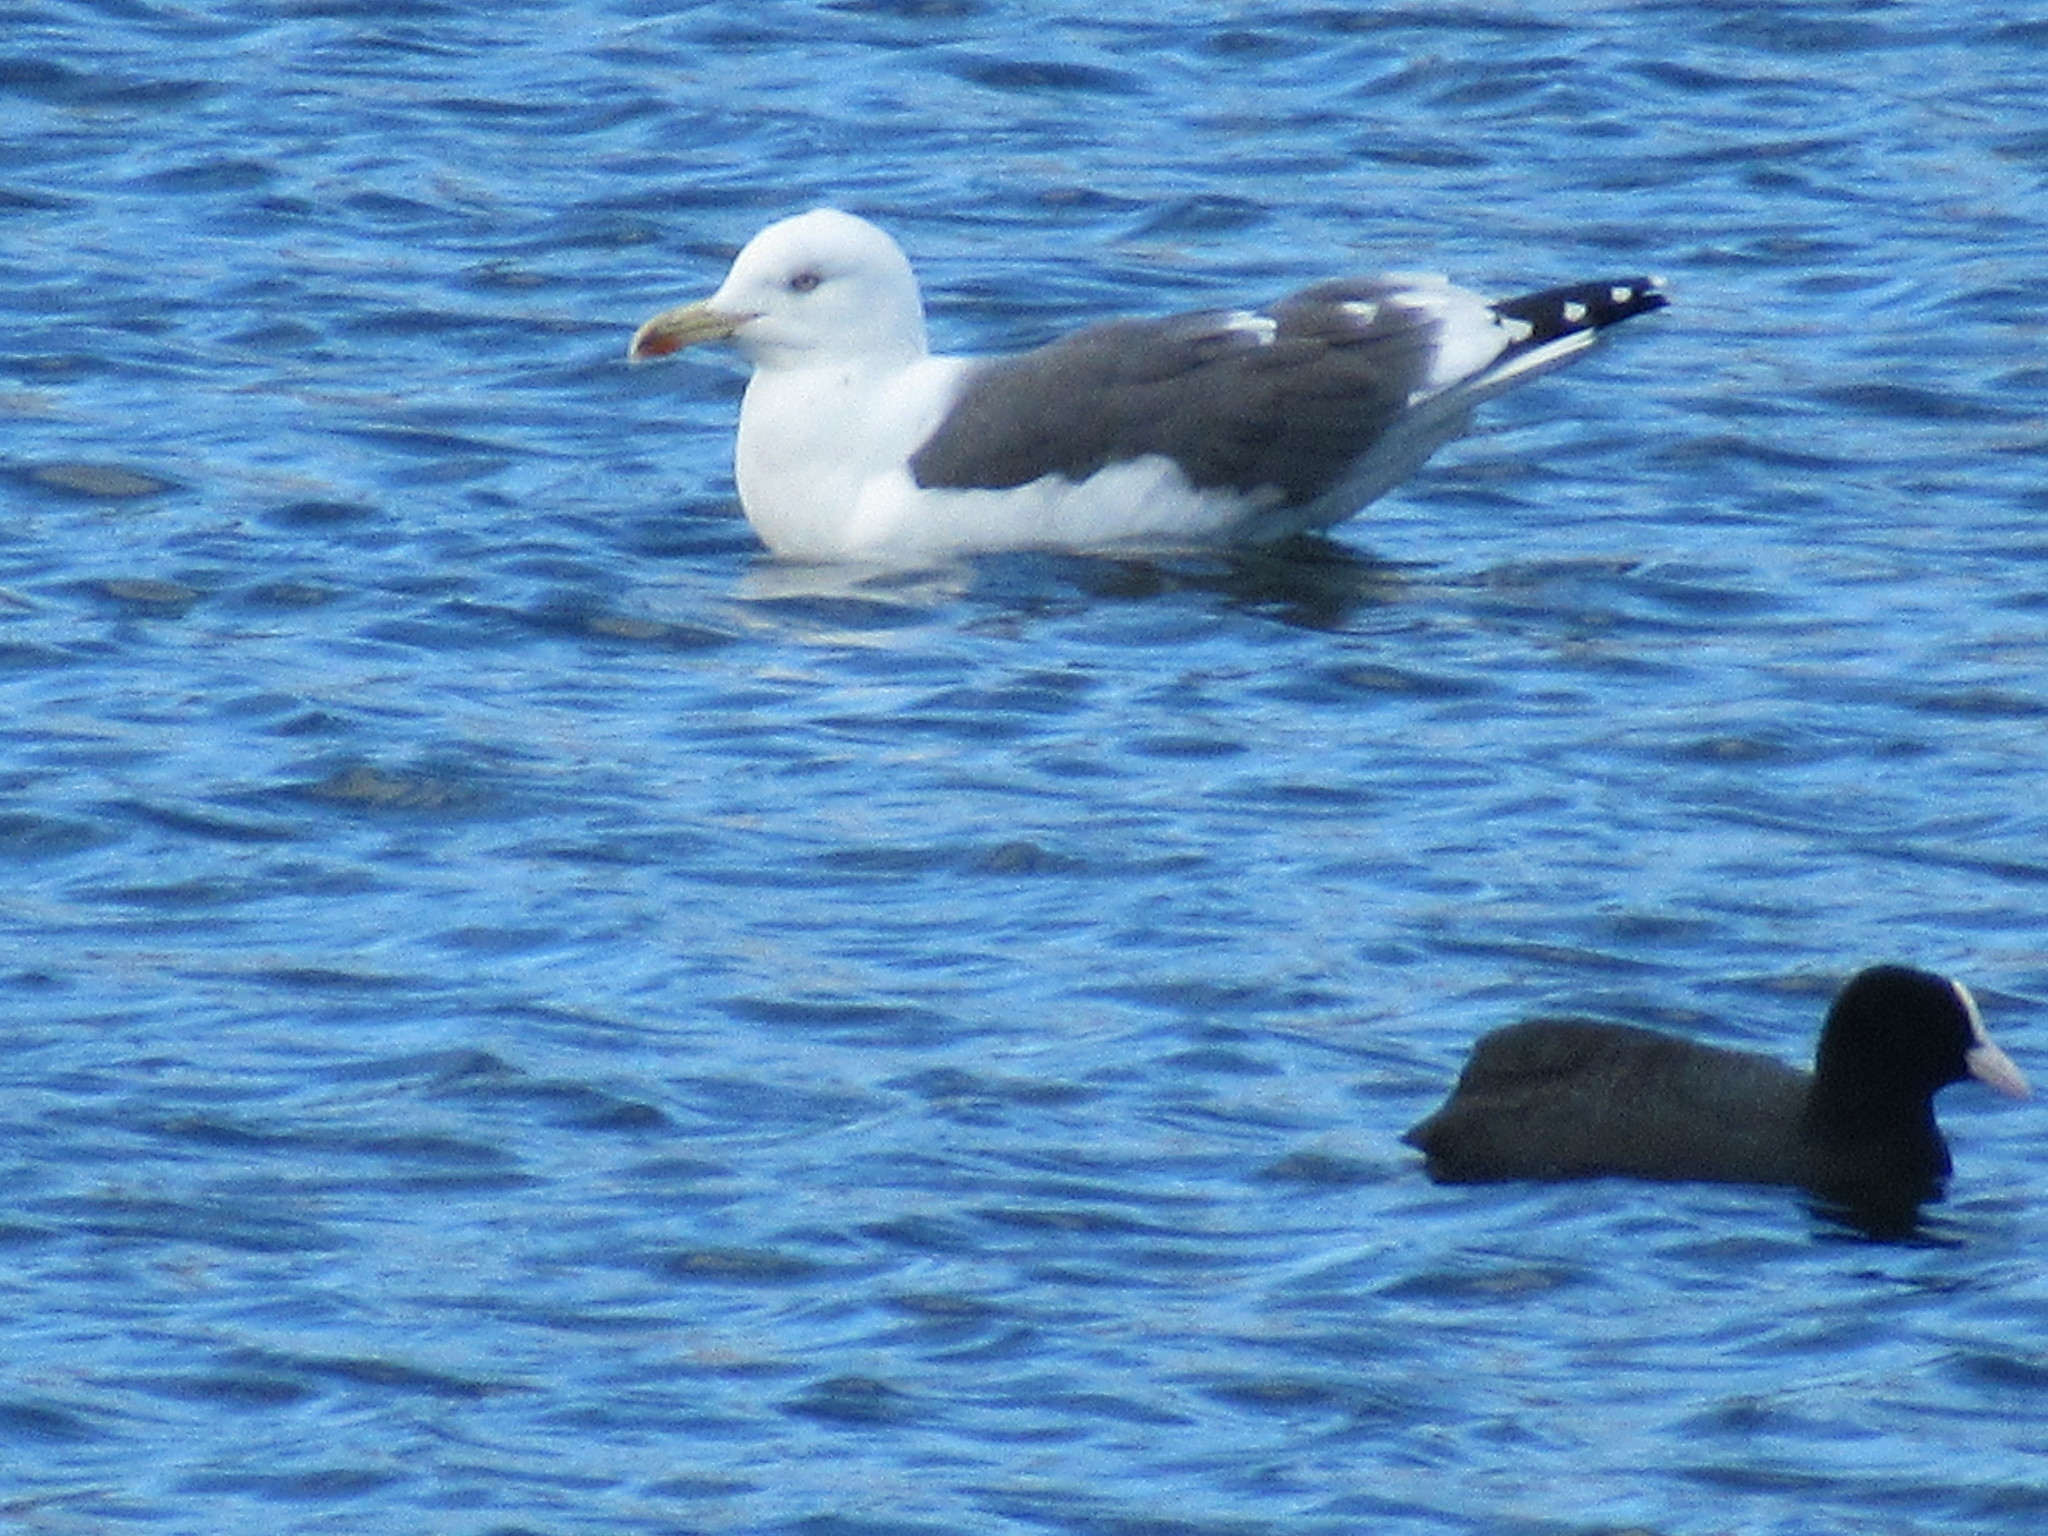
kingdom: Animalia
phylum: Chordata
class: Aves
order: Charadriiformes
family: Laridae
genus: Larus
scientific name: Larus fuscus
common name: Lesser black-backed gull
